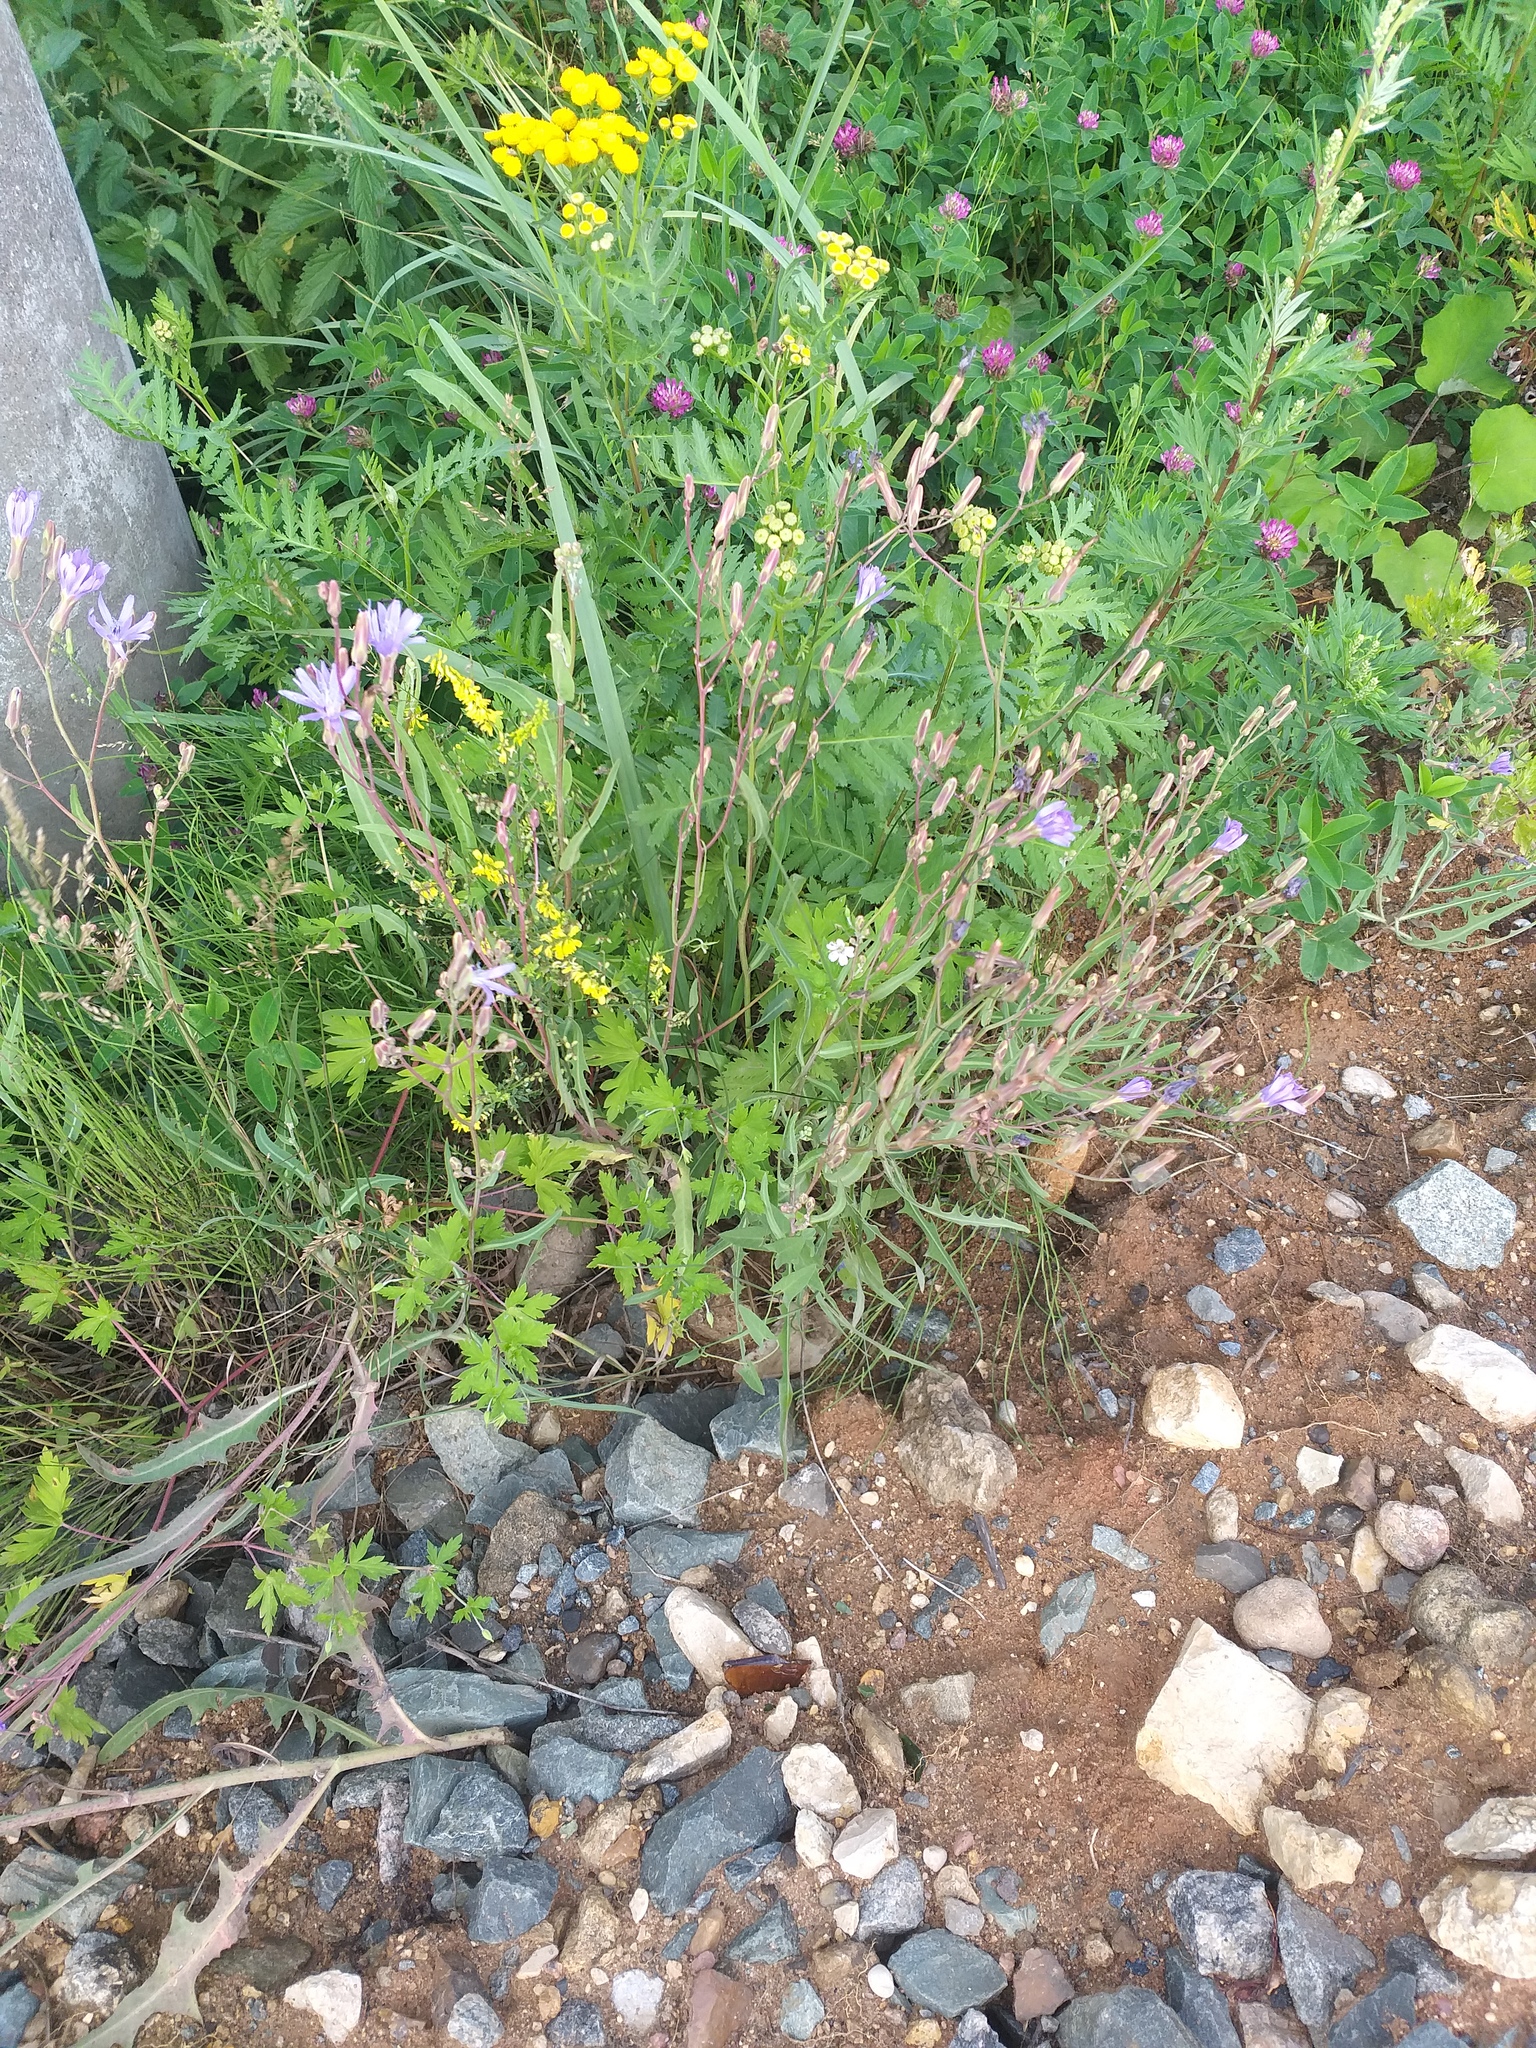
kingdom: Plantae
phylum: Tracheophyta
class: Magnoliopsida
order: Asterales
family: Asteraceae
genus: Lactuca
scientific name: Lactuca tatarica
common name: Blue lettuce
